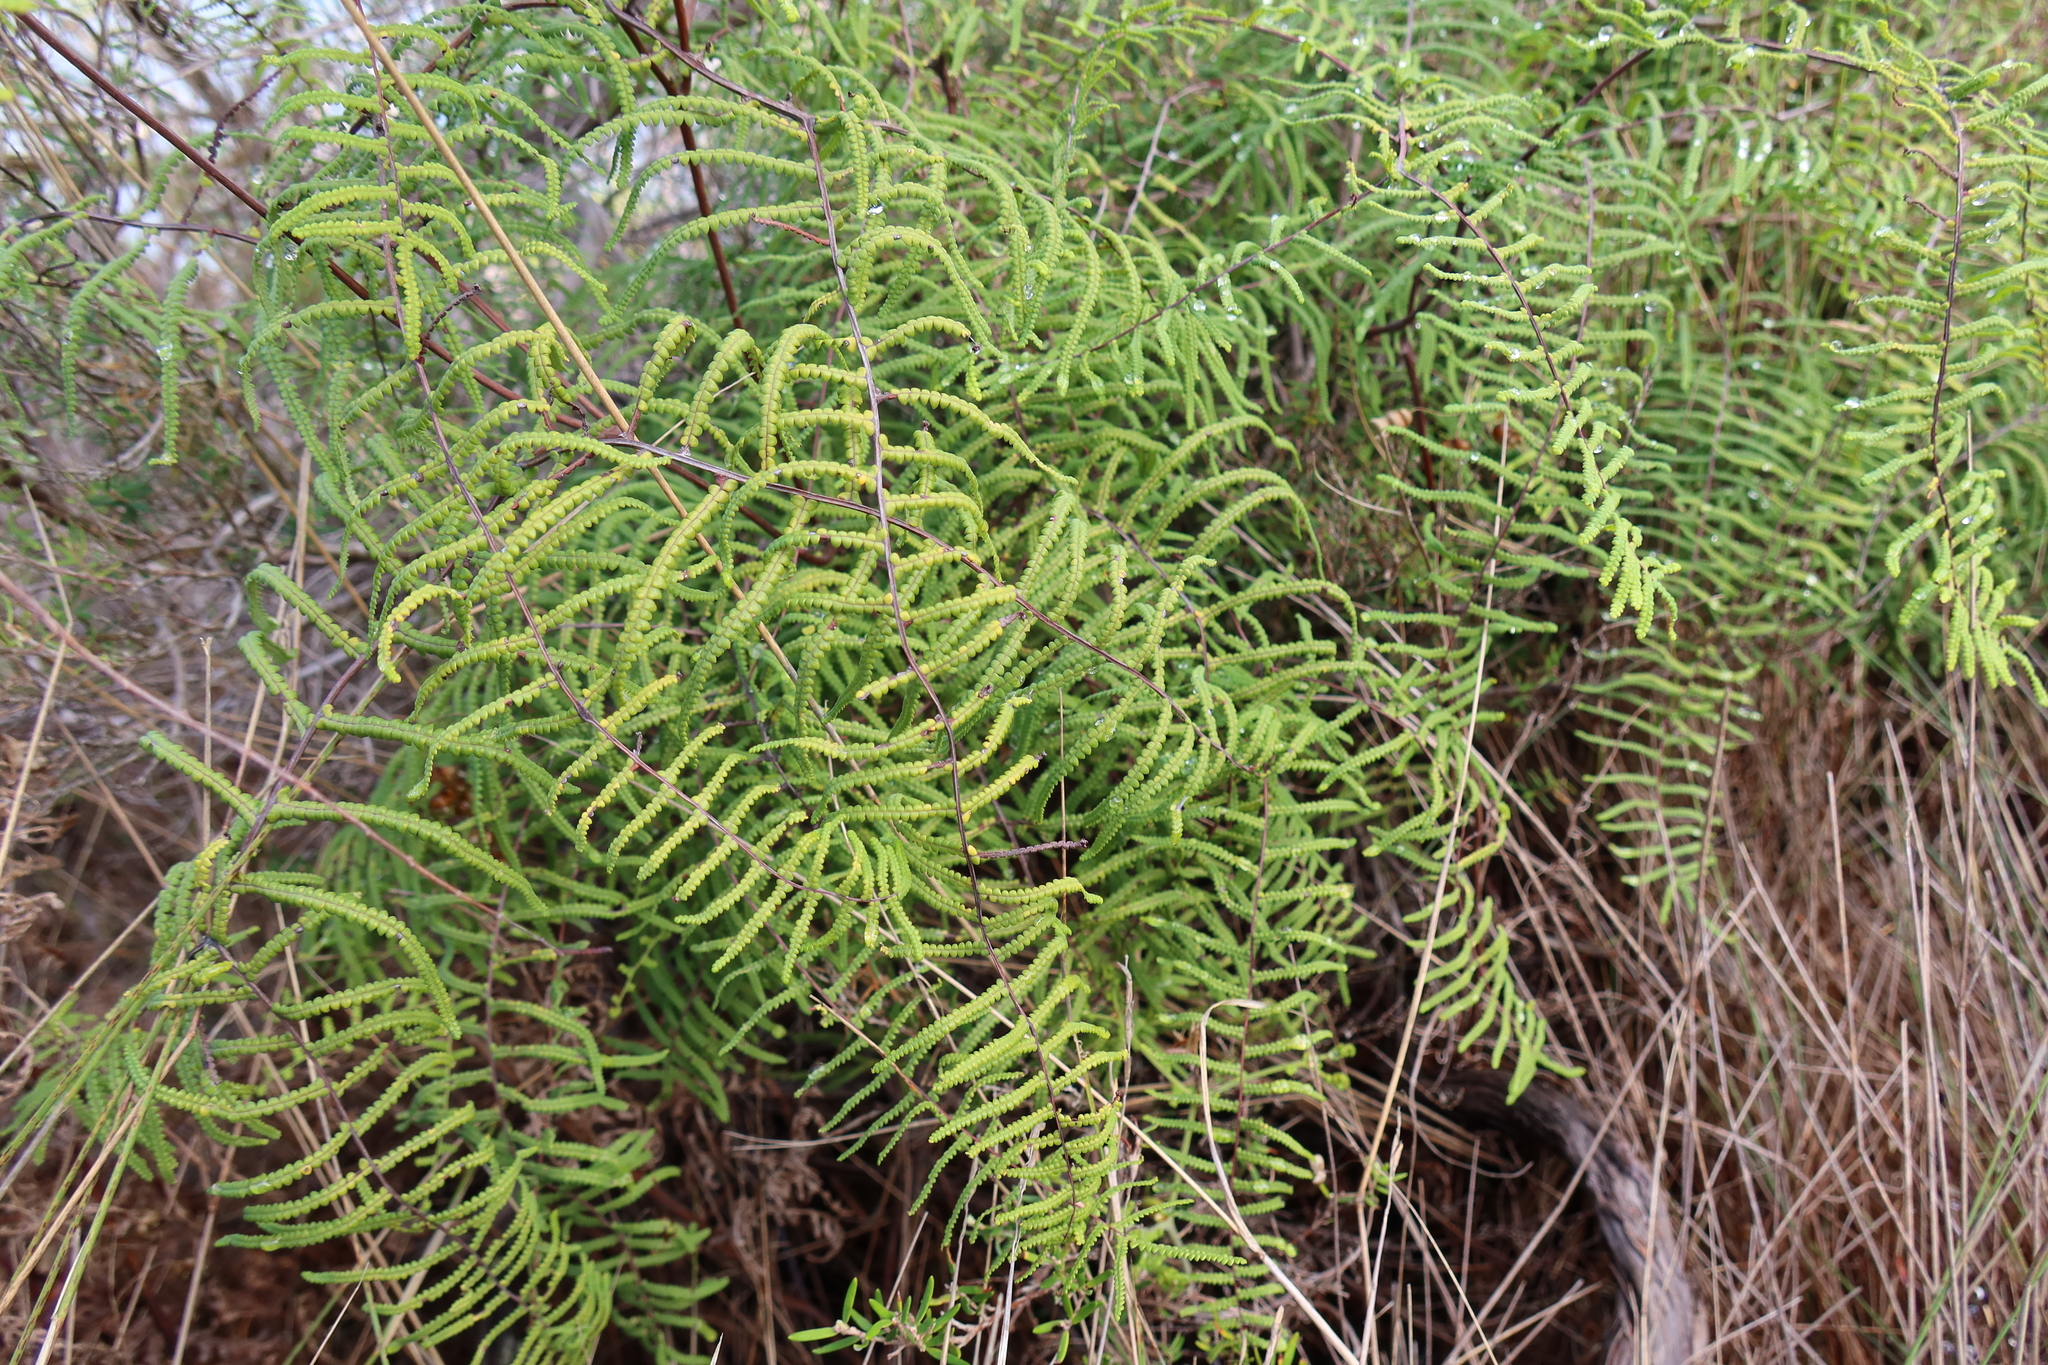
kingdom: Plantae
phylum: Tracheophyta
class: Polypodiopsida
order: Gleicheniales
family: Gleicheniaceae
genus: Gleichenia
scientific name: Gleichenia polypodioides
